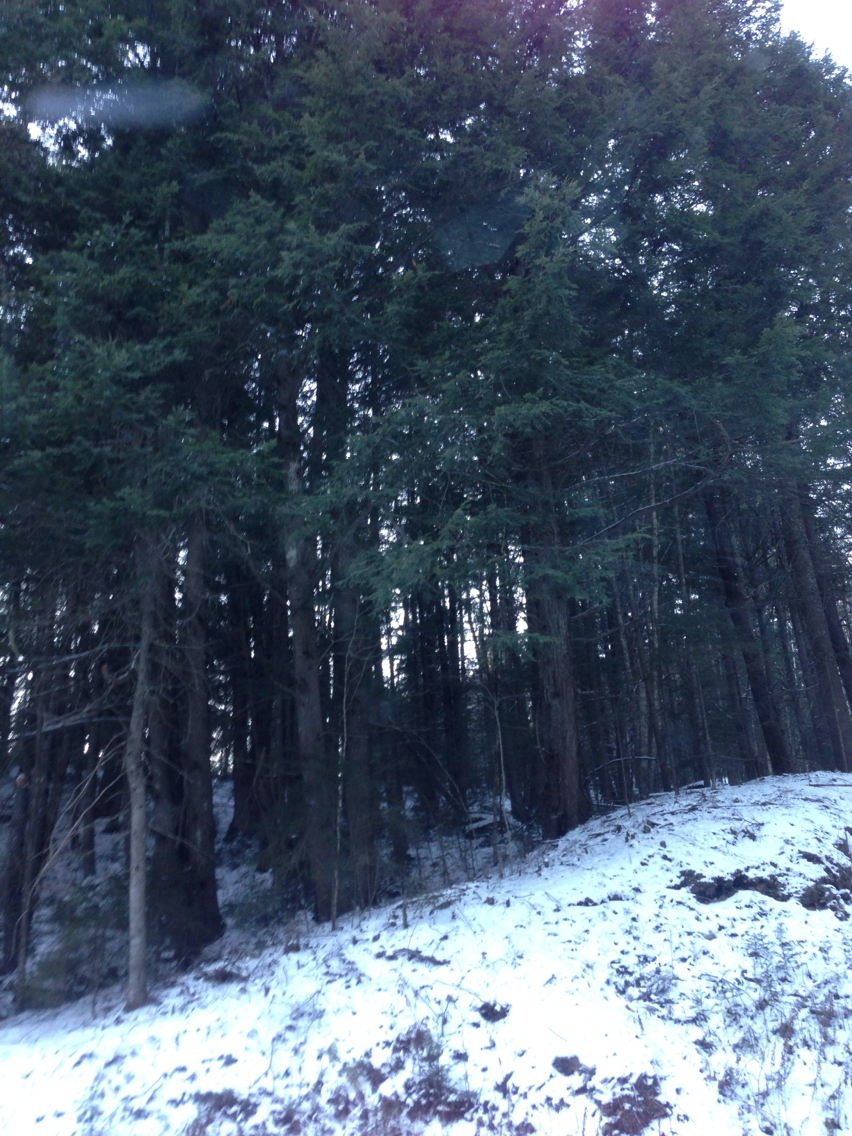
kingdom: Plantae
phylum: Tracheophyta
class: Pinopsida
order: Pinales
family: Pinaceae
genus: Tsuga
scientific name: Tsuga canadensis
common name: Eastern hemlock
